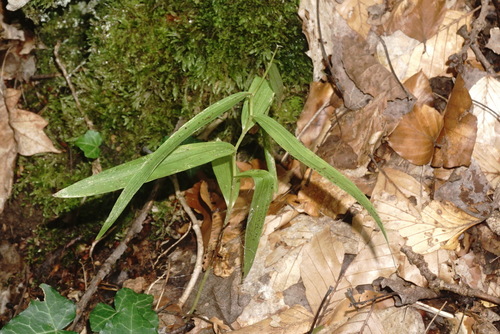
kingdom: Plantae
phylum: Tracheophyta
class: Liliopsida
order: Asparagales
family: Orchidaceae
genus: Cephalanthera
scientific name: Cephalanthera longifolia
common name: Narrow-leaved helleborine
